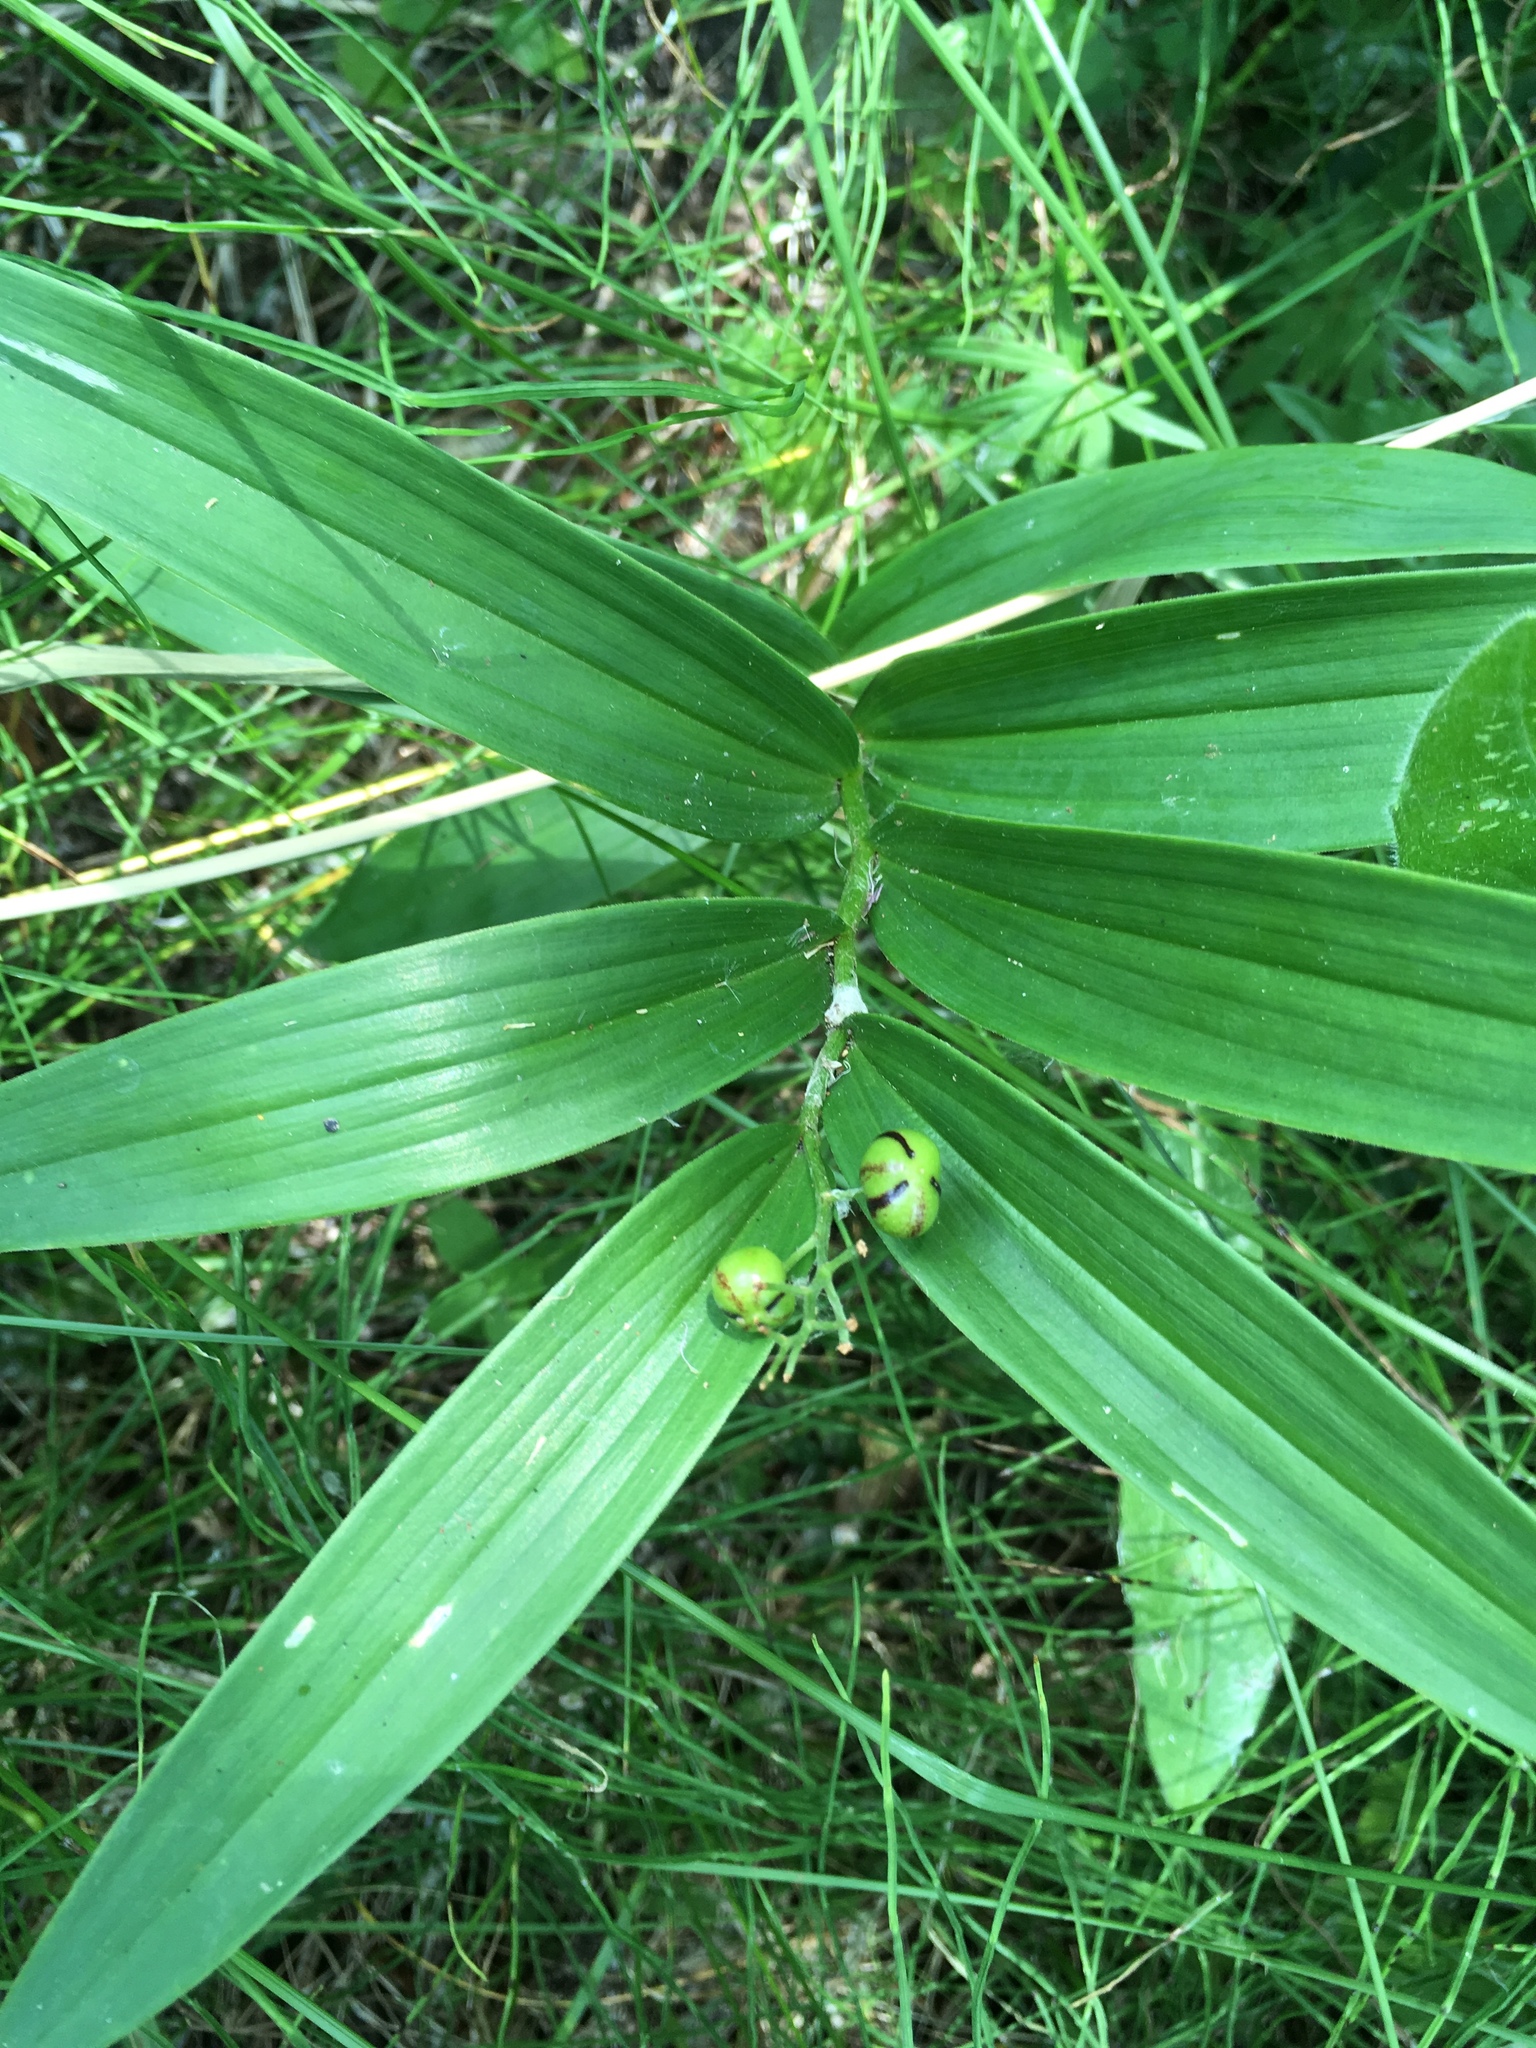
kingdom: Plantae
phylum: Tracheophyta
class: Liliopsida
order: Asparagales
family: Asparagaceae
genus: Maianthemum
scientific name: Maianthemum stellatum
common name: Little false solomon's seal
